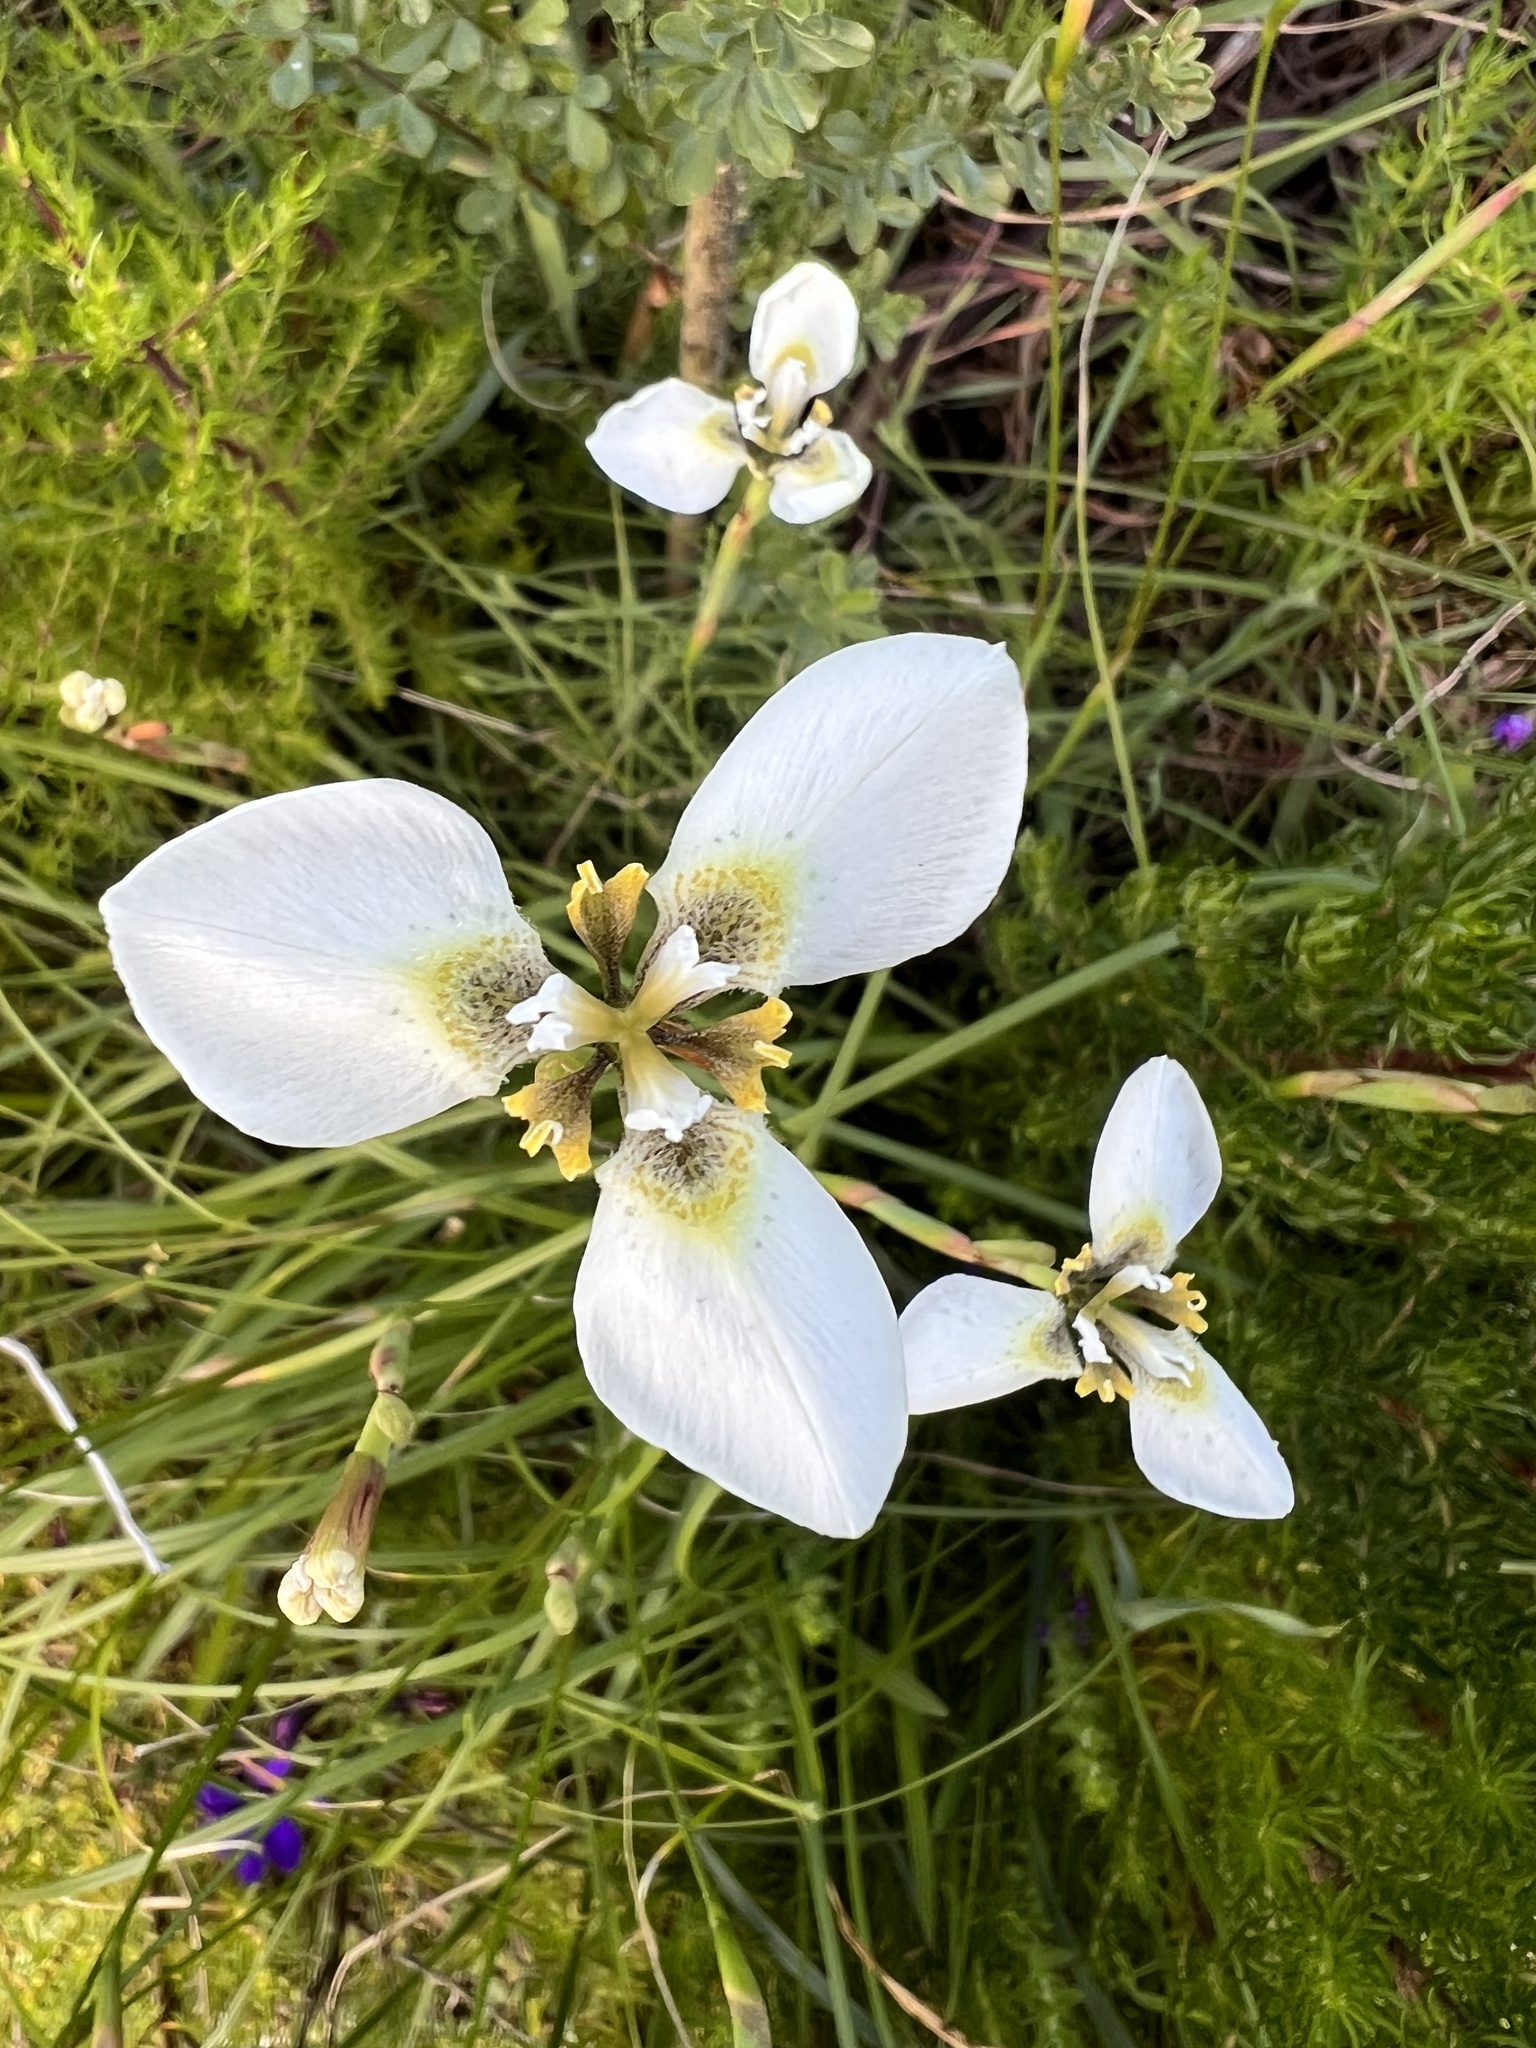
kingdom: Plantae
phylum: Tracheophyta
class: Liliopsida
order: Asparagales
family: Iridaceae
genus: Moraea
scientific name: Moraea tricuspidata
